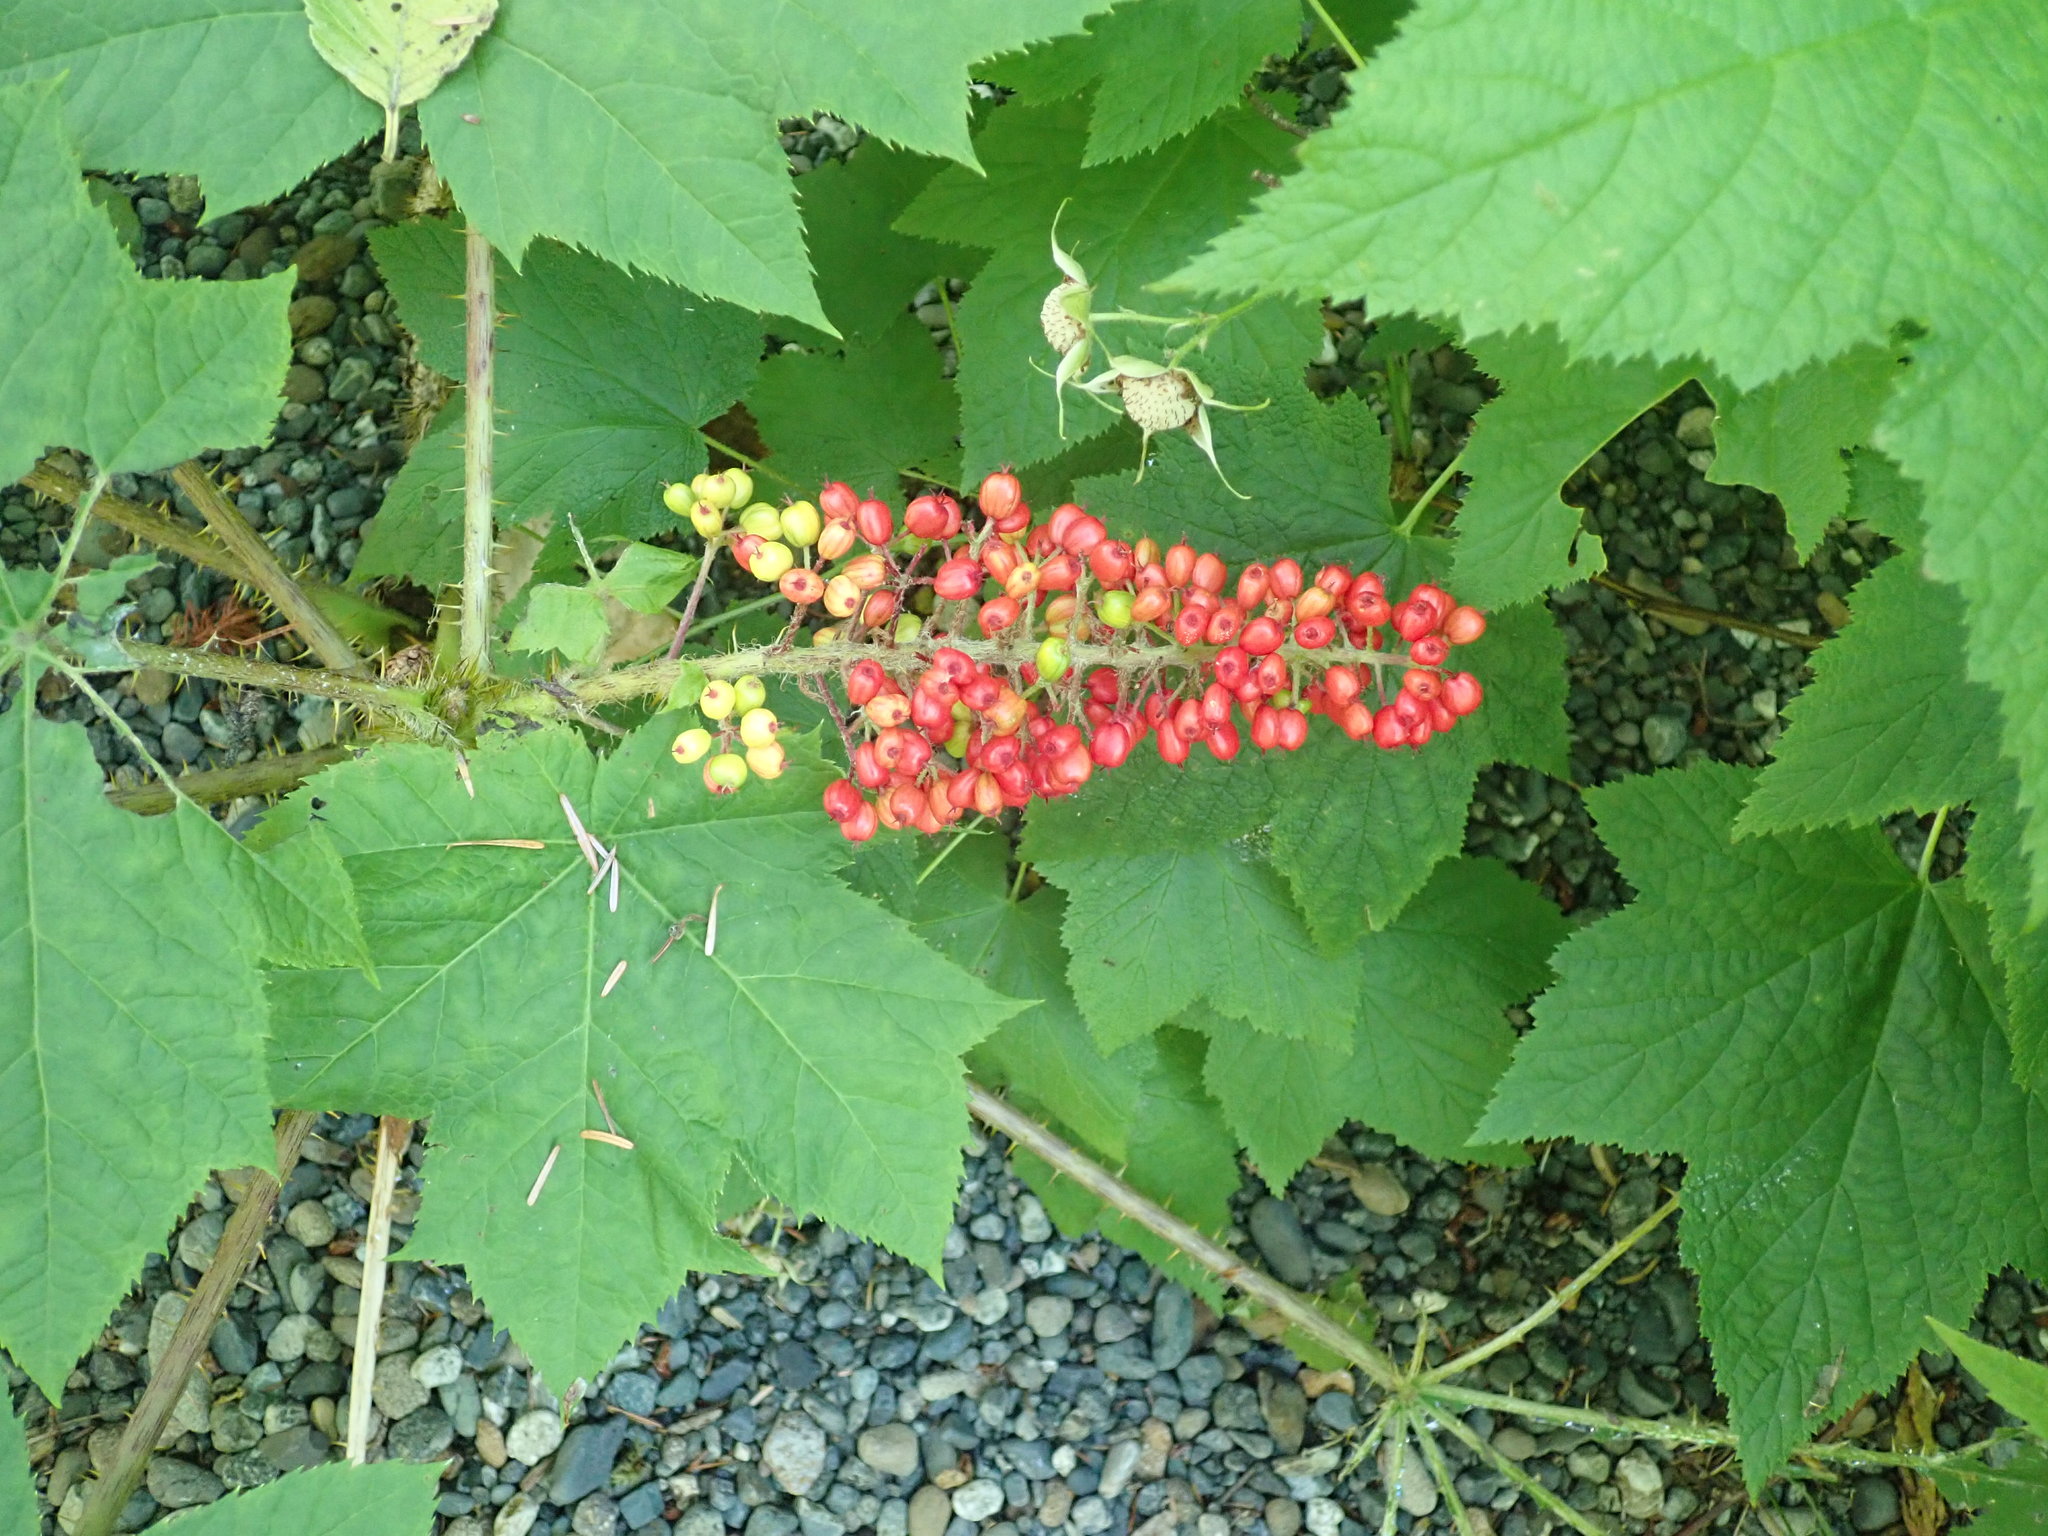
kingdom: Plantae
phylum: Tracheophyta
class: Magnoliopsida
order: Apiales
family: Araliaceae
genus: Oplopanax
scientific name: Oplopanax horridus
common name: Devil's walking-stick
